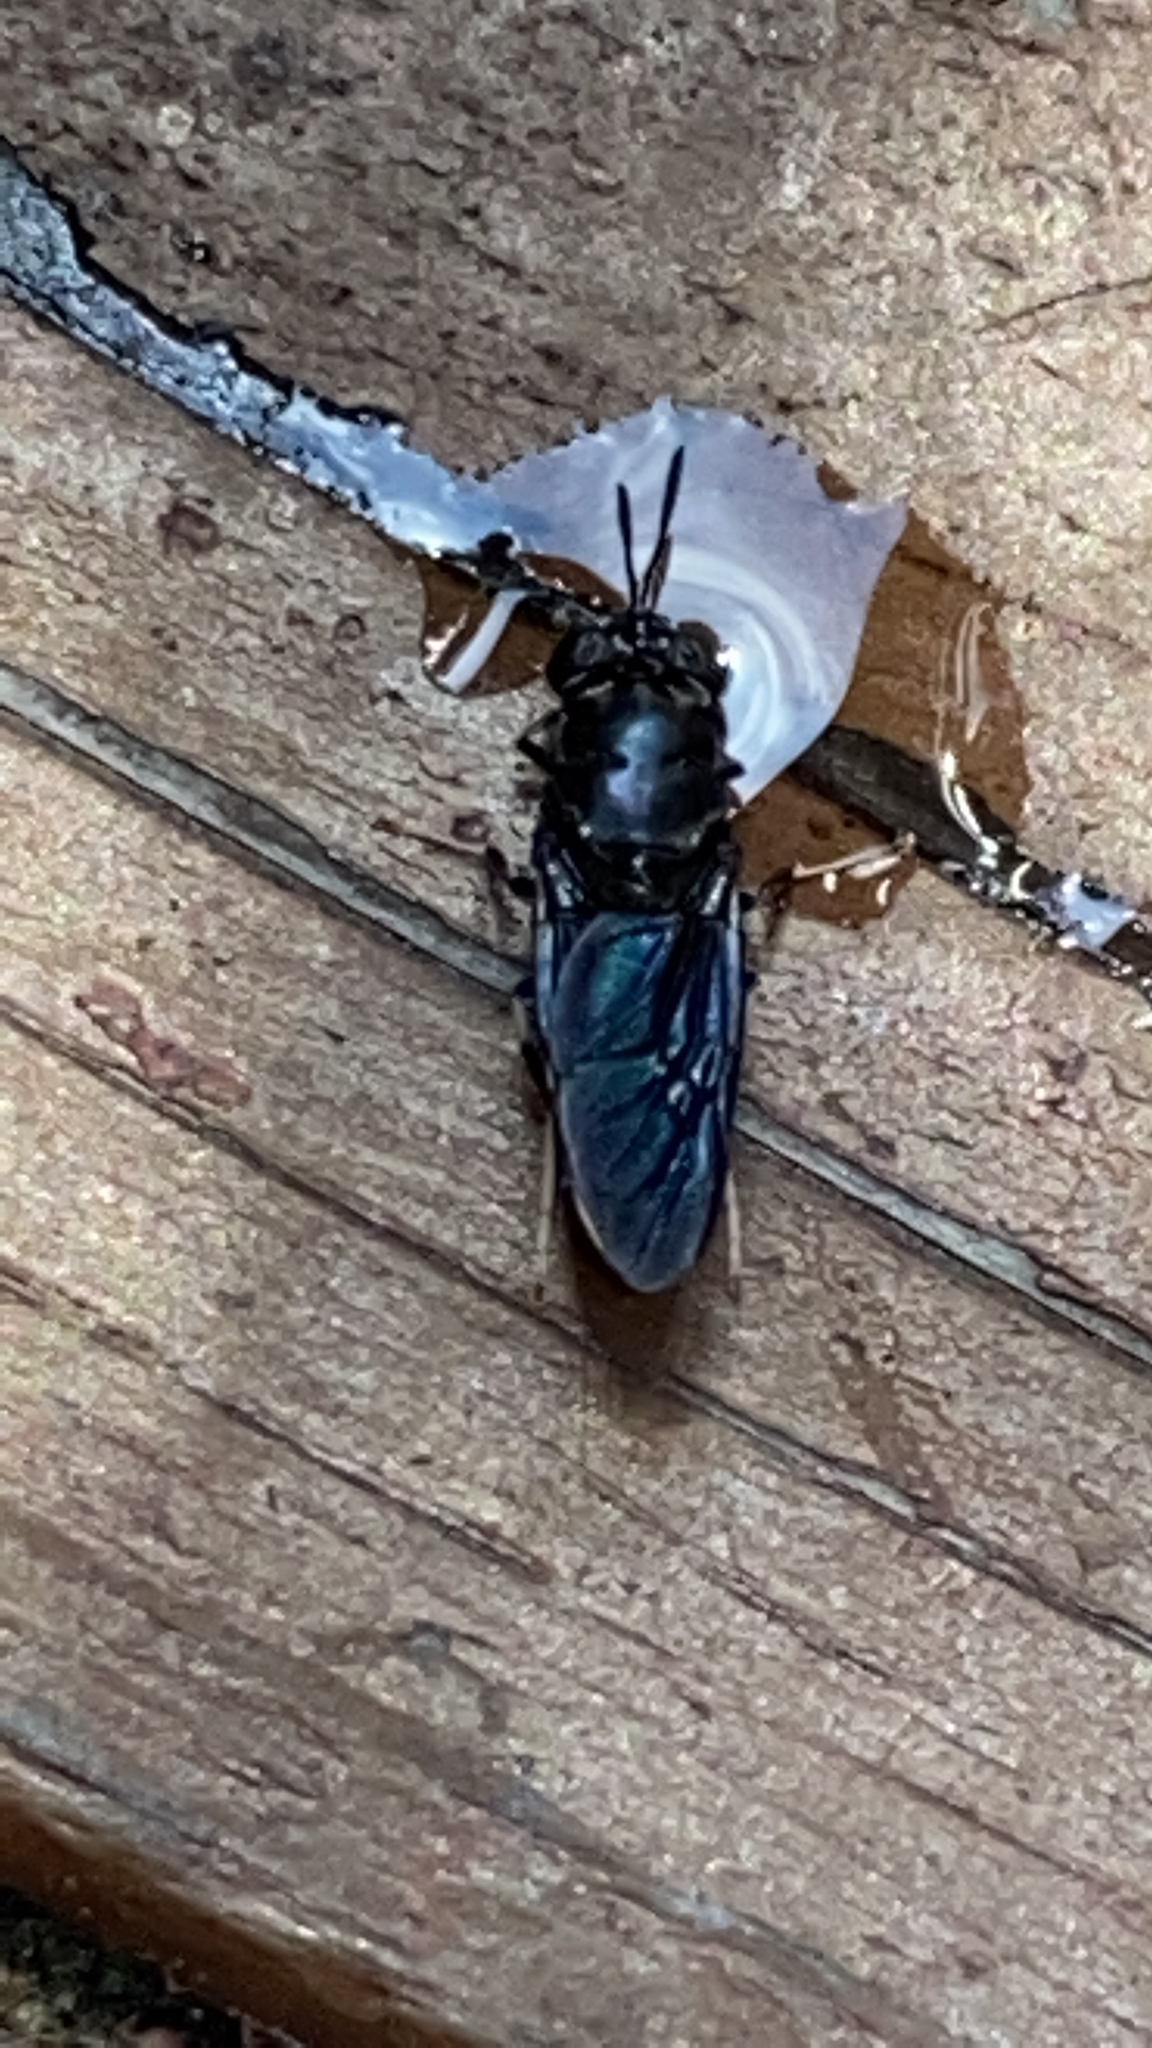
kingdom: Animalia
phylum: Arthropoda
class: Insecta
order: Diptera
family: Stratiomyidae
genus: Hermetia
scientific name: Hermetia illucens
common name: Black soldier fly
